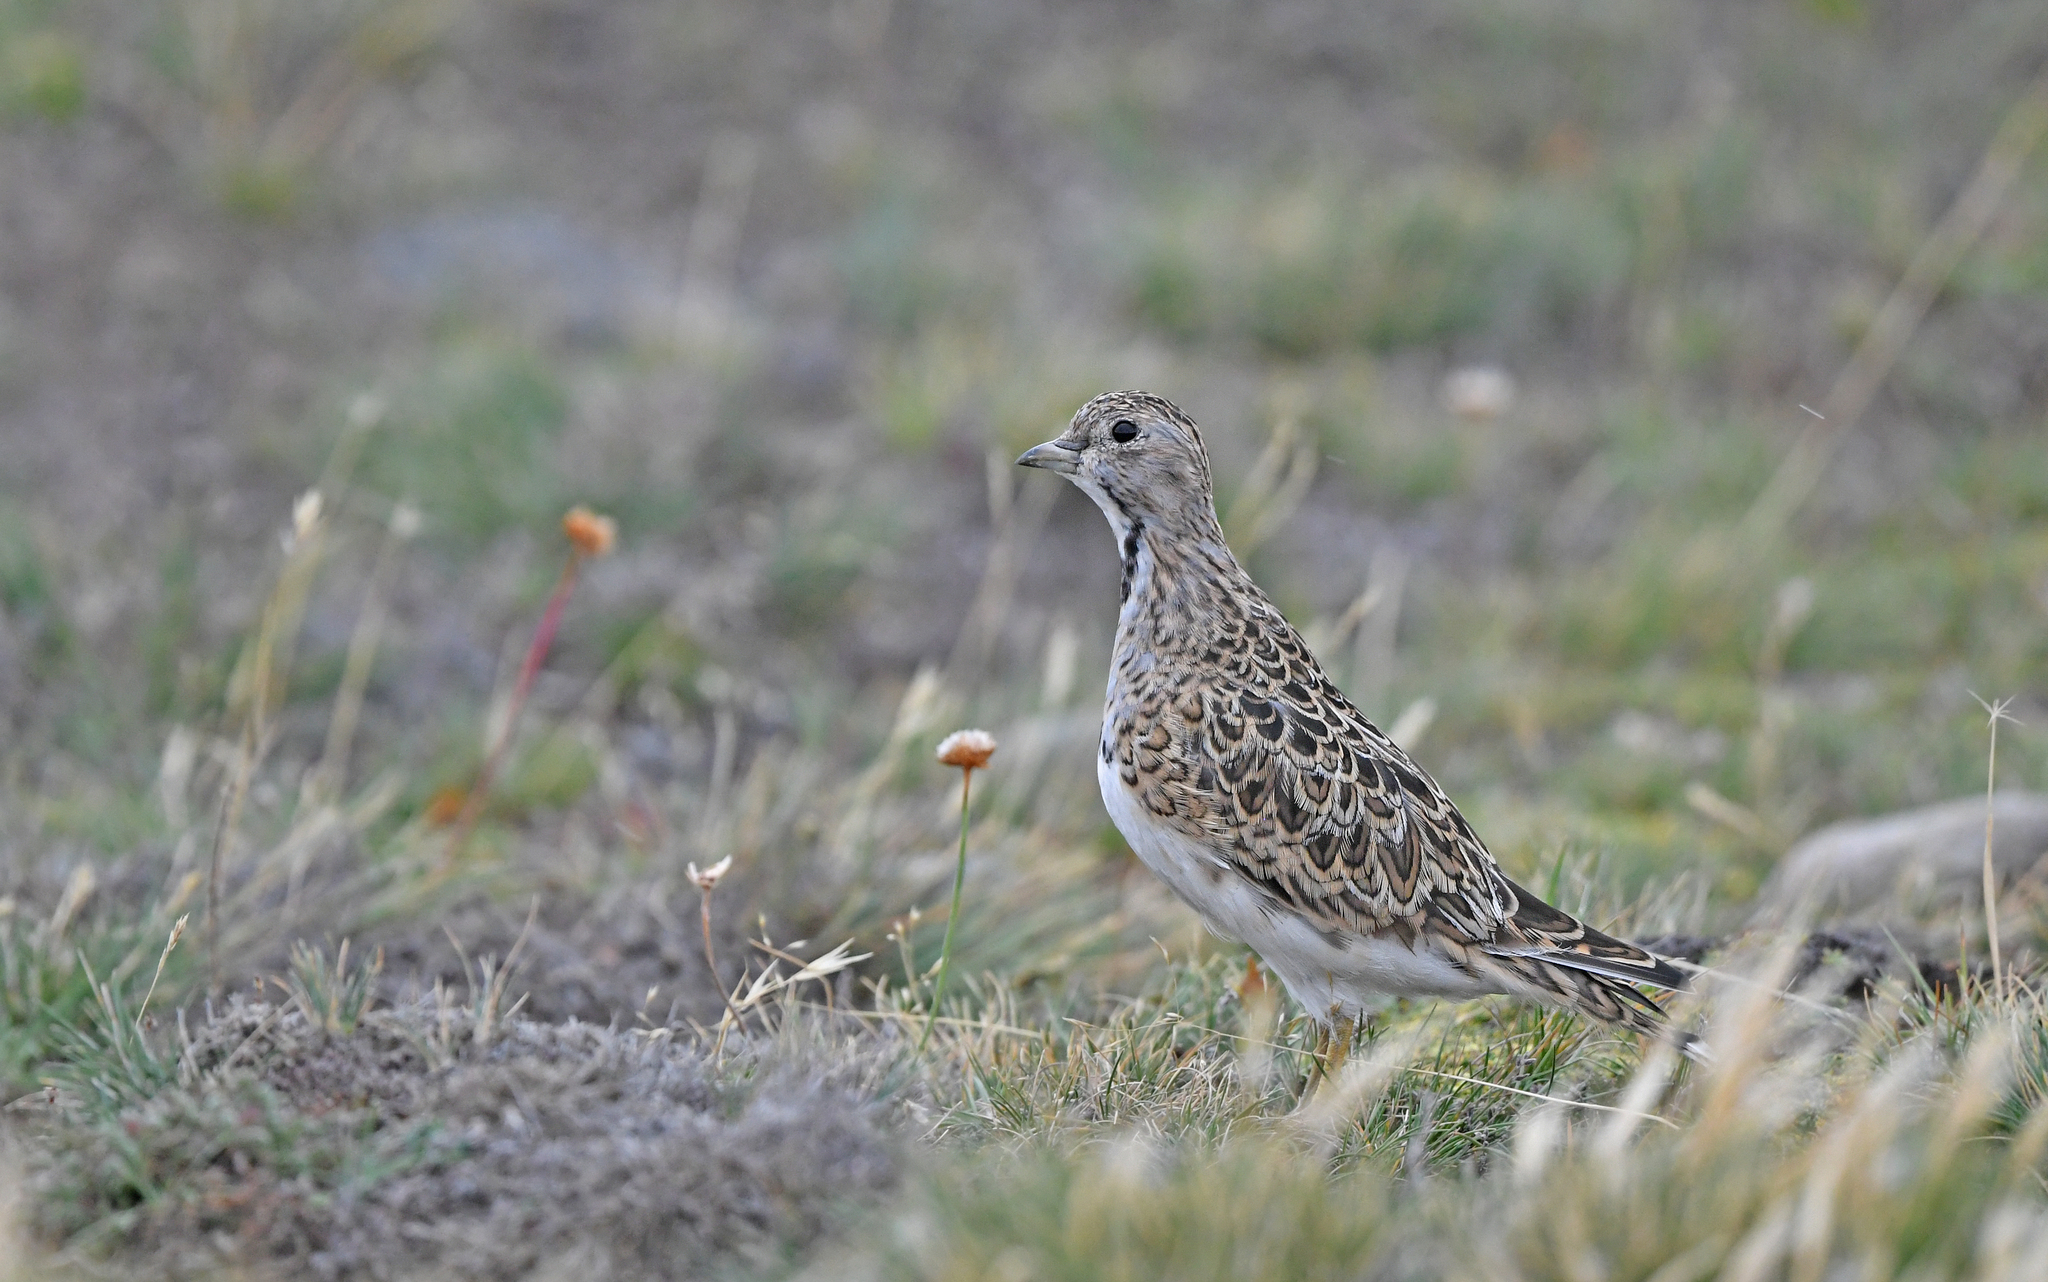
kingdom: Animalia
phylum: Chordata
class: Aves
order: Charadriiformes
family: Thinocoridae
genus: Thinocorus
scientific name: Thinocorus rumicivorus
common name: Least seedsnipe
